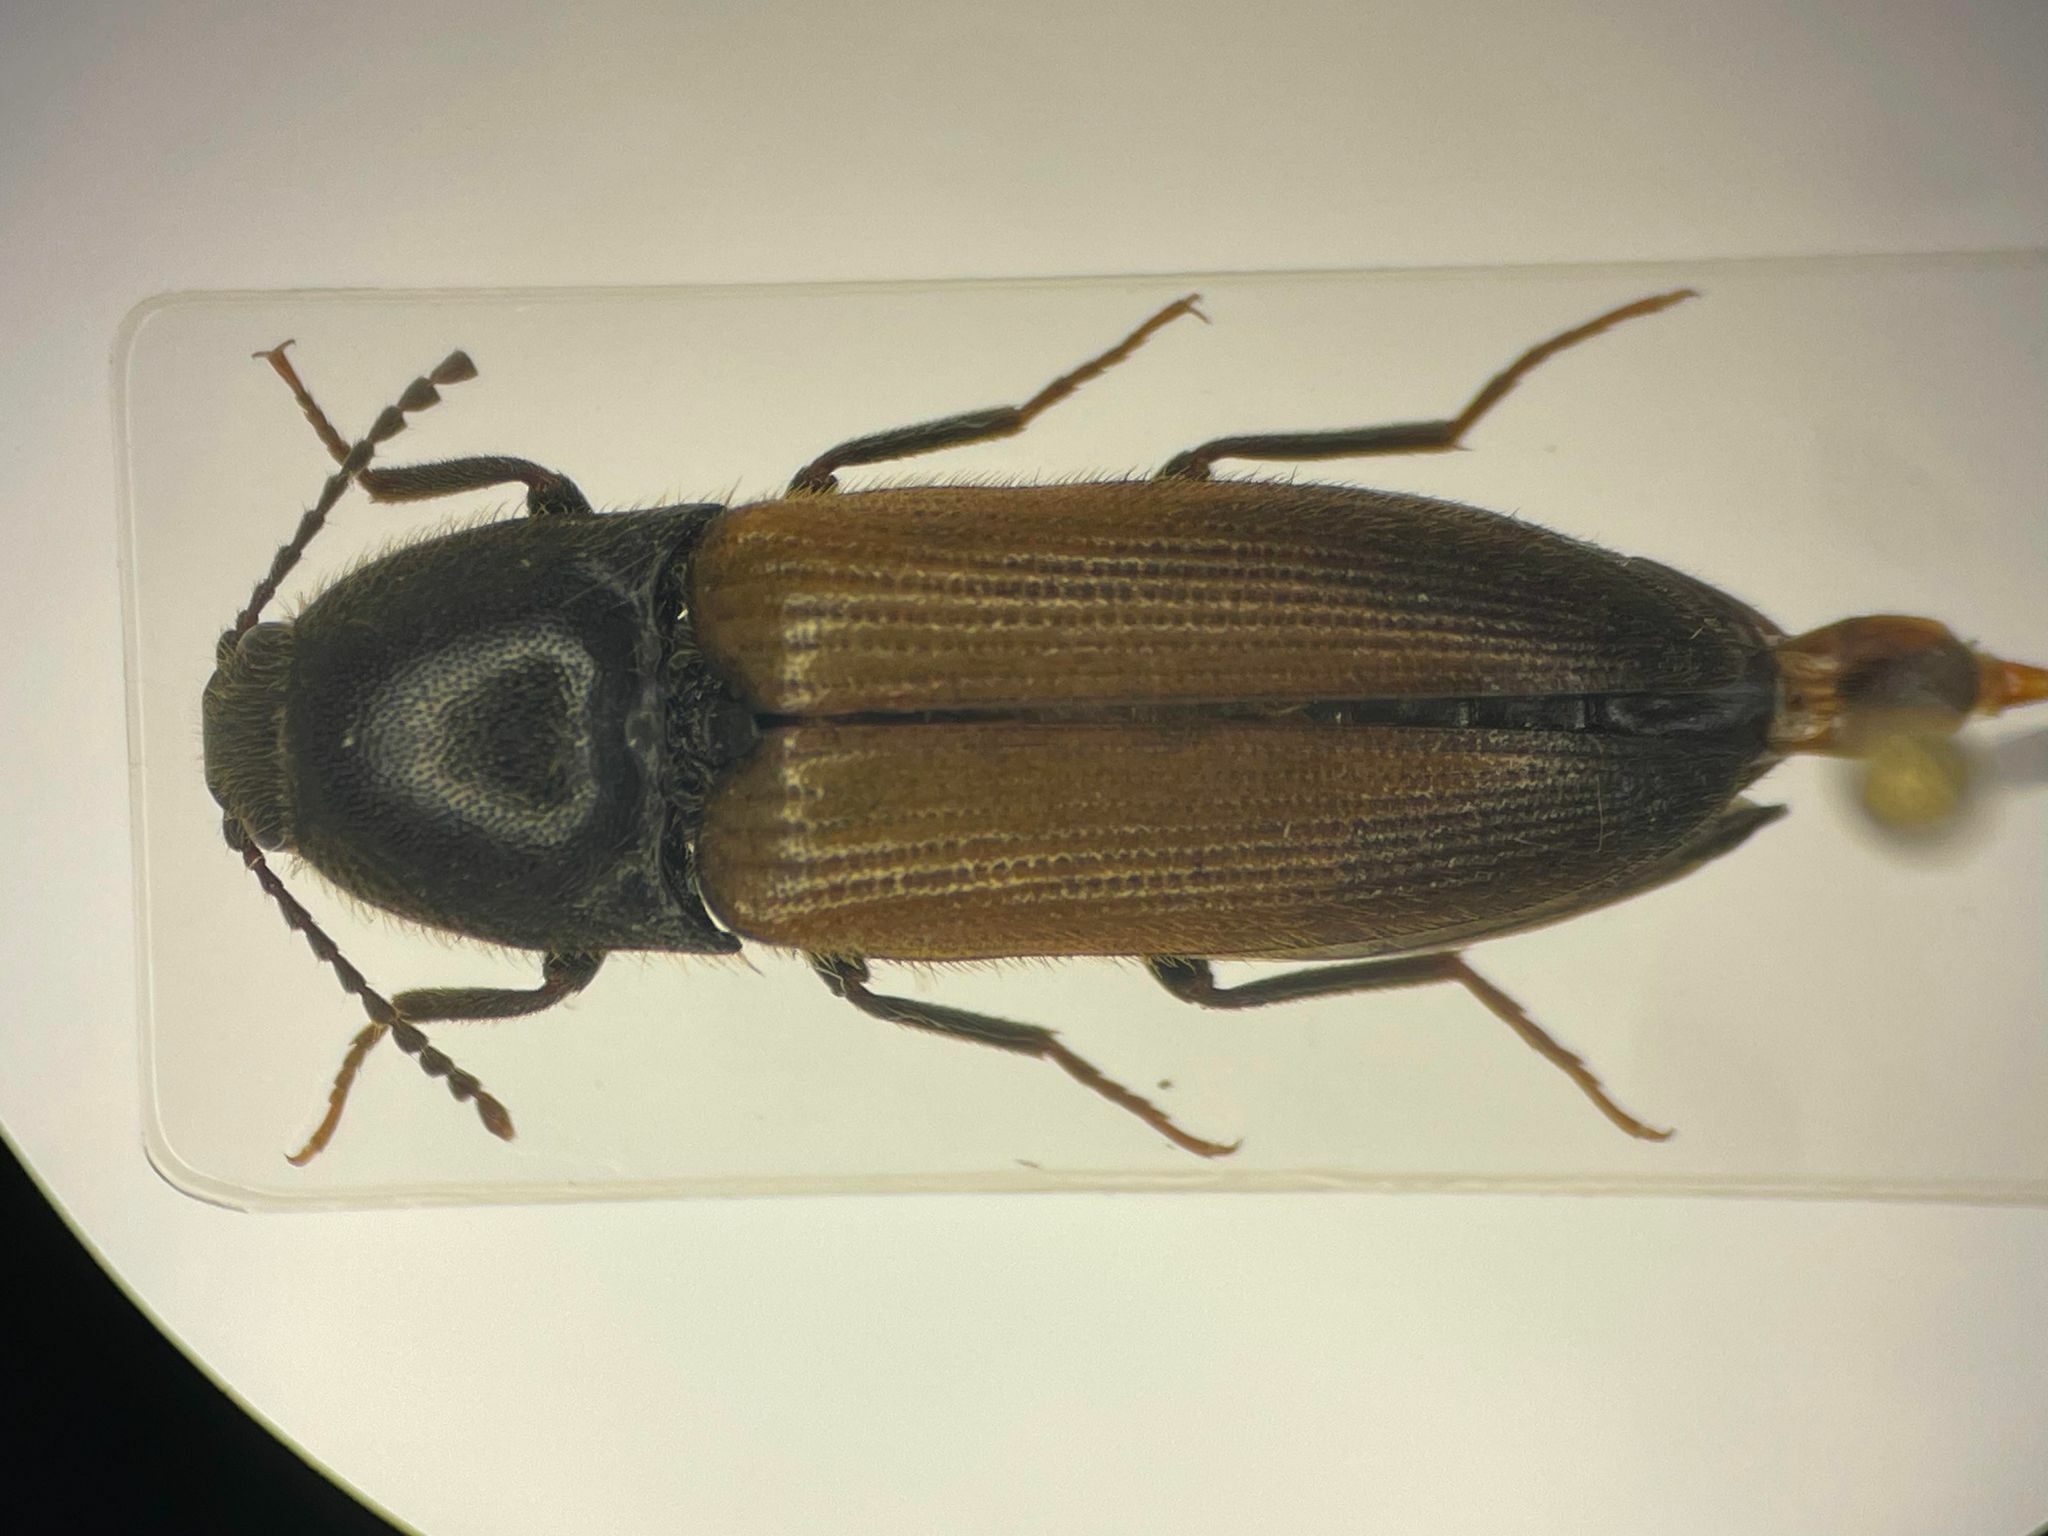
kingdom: Animalia
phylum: Arthropoda
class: Insecta
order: Coleoptera
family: Elateridae
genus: Ampedus
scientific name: Ampedus evansi
